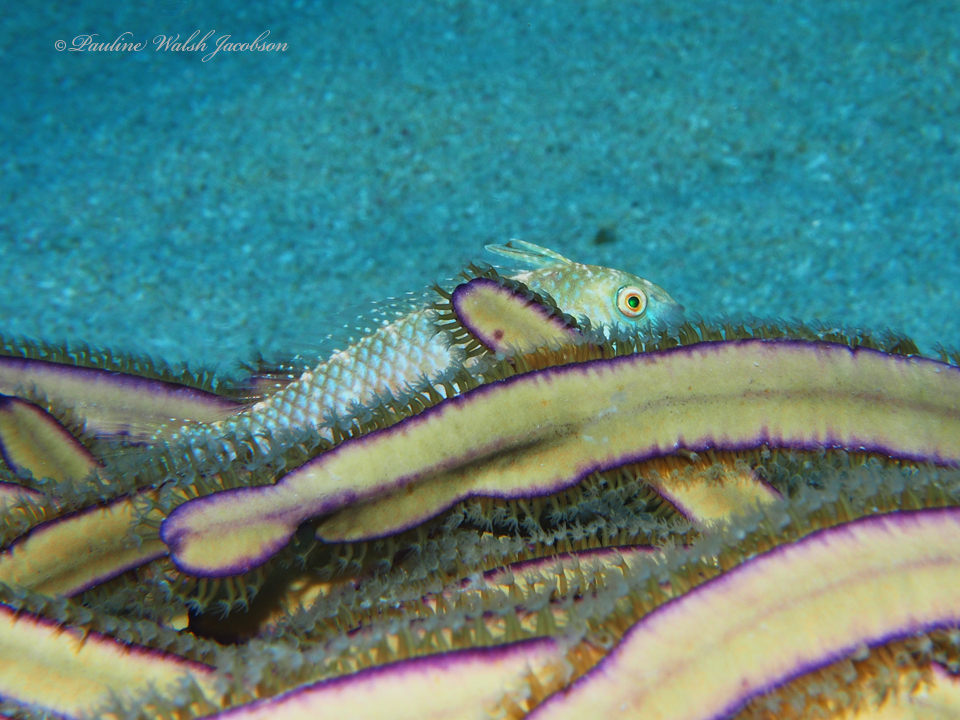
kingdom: Animalia
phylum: Chordata
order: Perciformes
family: Labridae
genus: Xyrichtys
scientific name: Xyrichtys splendens
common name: Green razorfish
